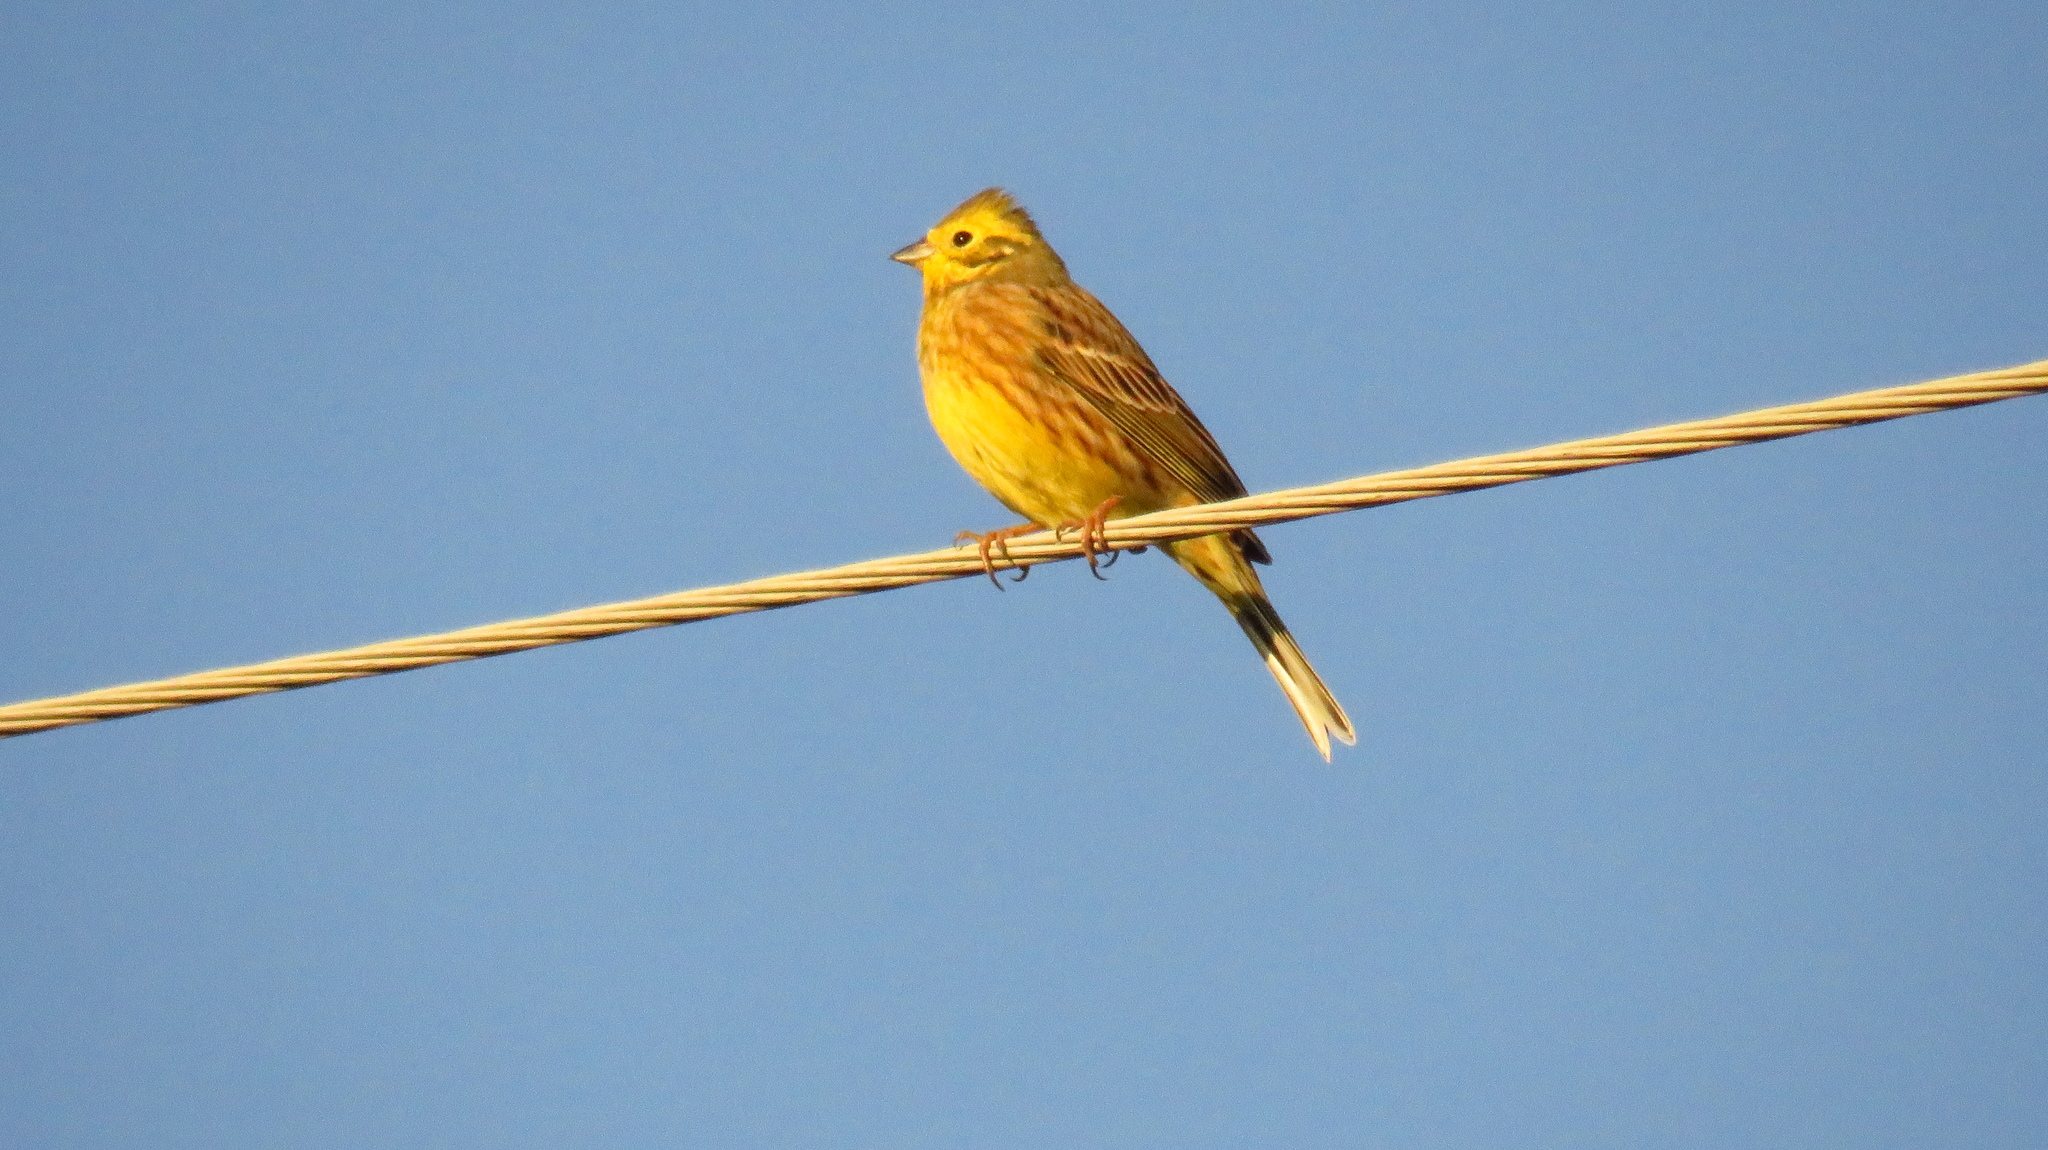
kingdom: Animalia
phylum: Chordata
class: Aves
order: Passeriformes
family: Emberizidae
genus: Emberiza
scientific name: Emberiza citrinella
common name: Yellowhammer
